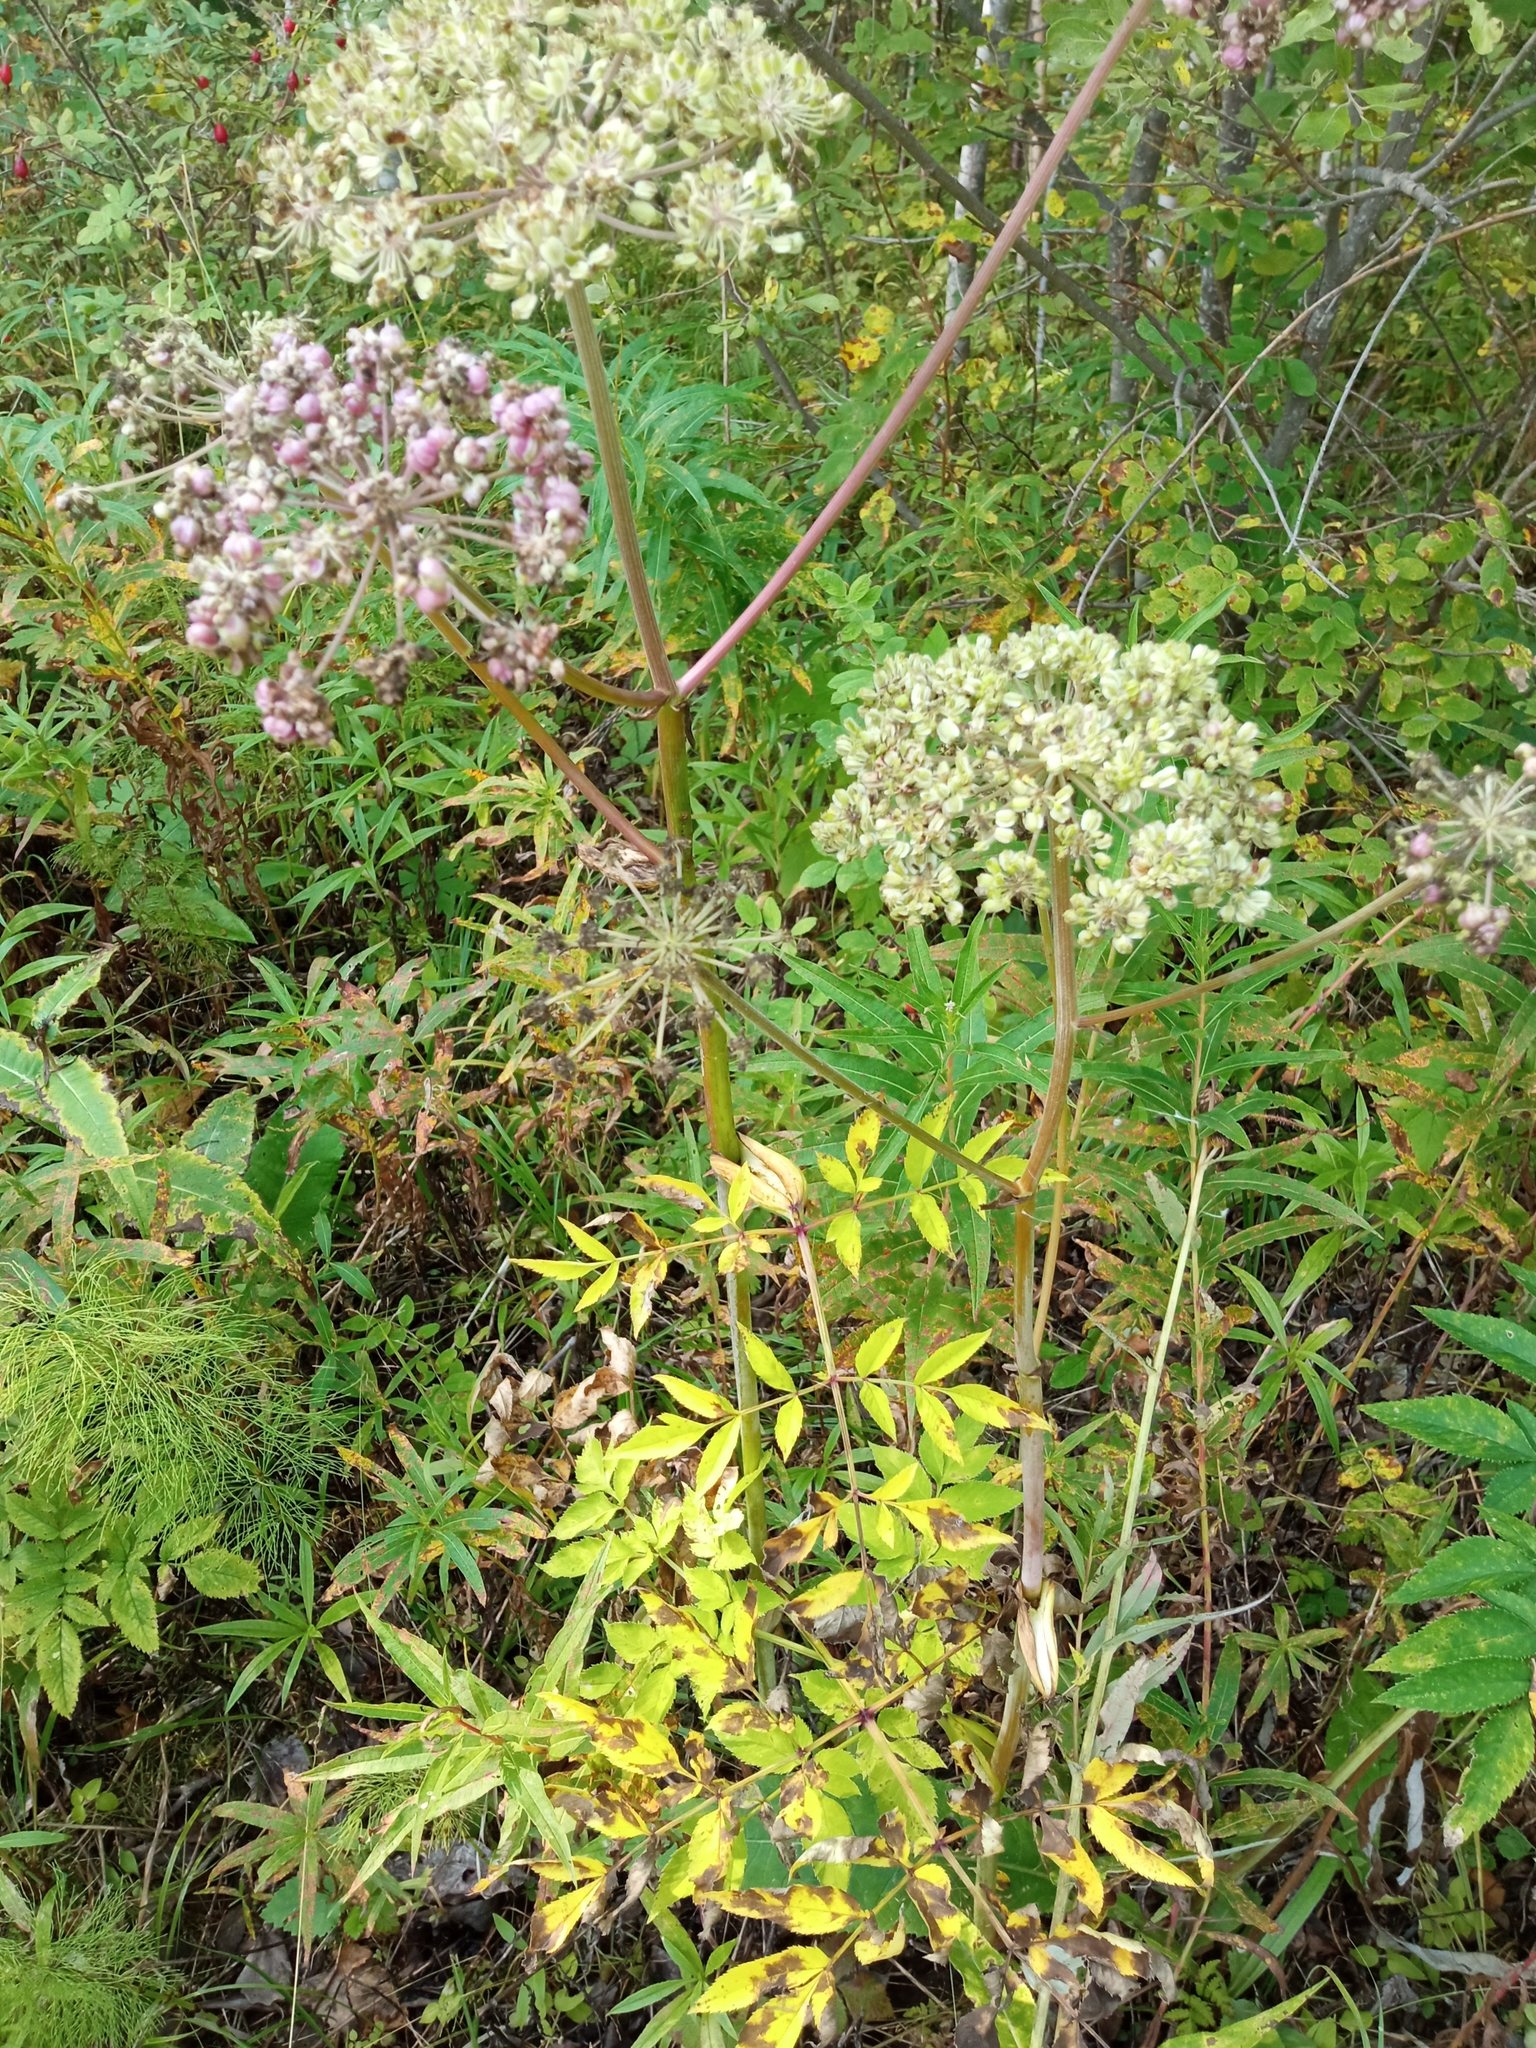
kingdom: Plantae
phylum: Tracheophyta
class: Magnoliopsida
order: Apiales
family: Apiaceae
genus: Angelica
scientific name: Angelica sylvestris
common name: Wild angelica
